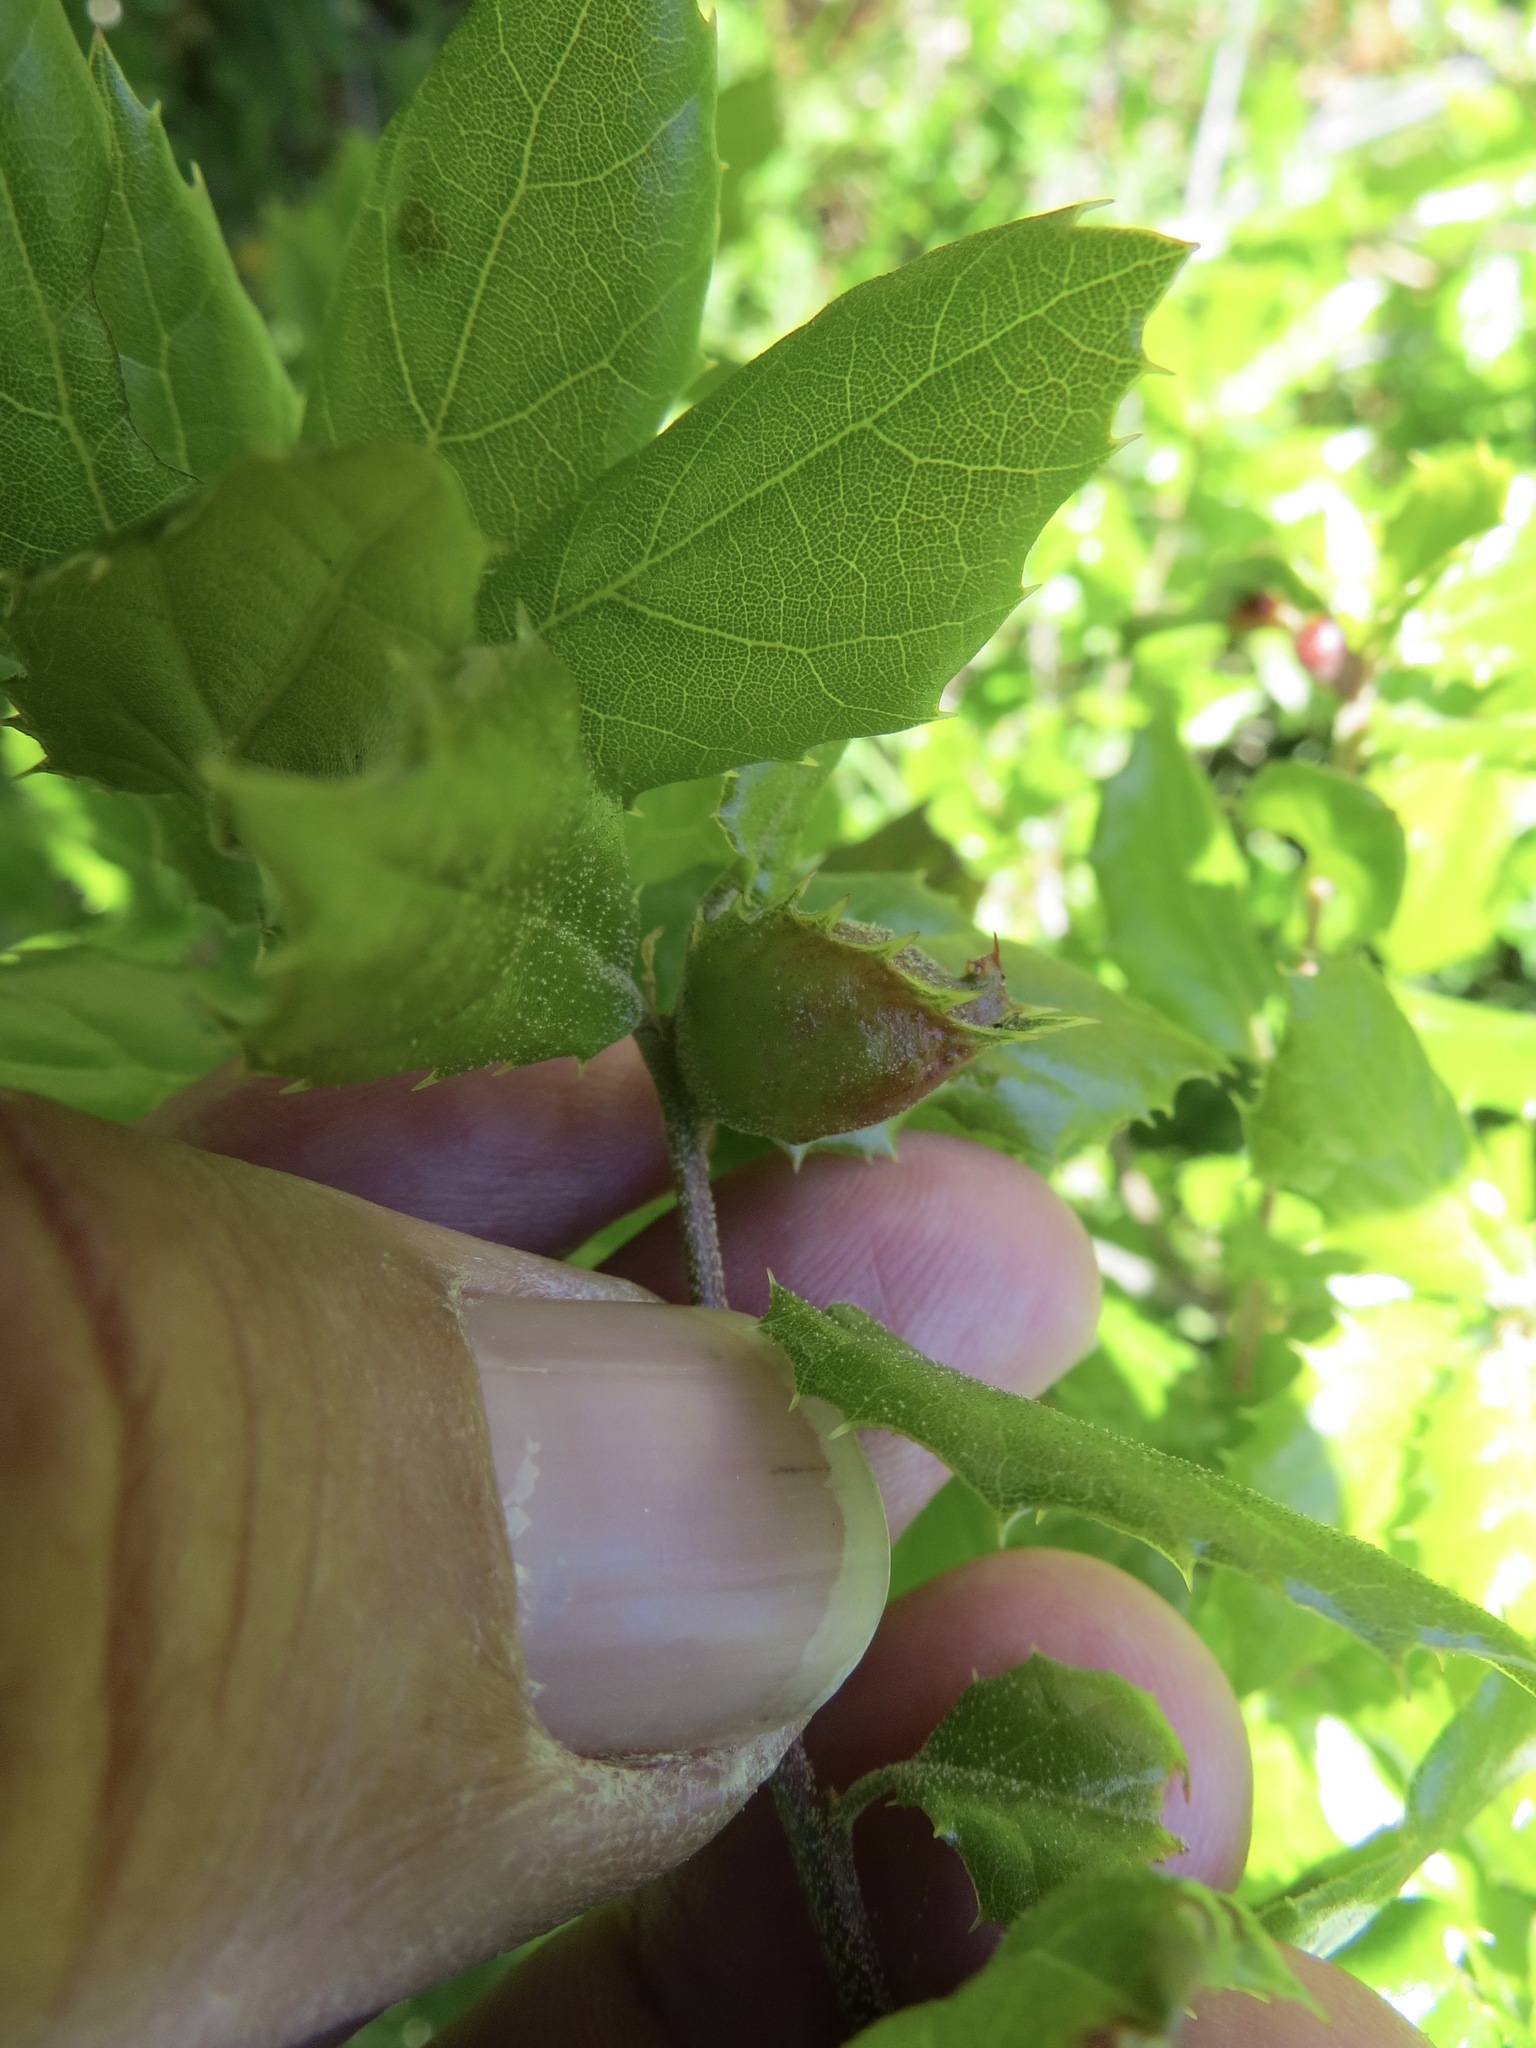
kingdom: Animalia
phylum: Arthropoda
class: Insecta
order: Hymenoptera
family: Cynipidae
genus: Callirhytis
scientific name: Callirhytis
